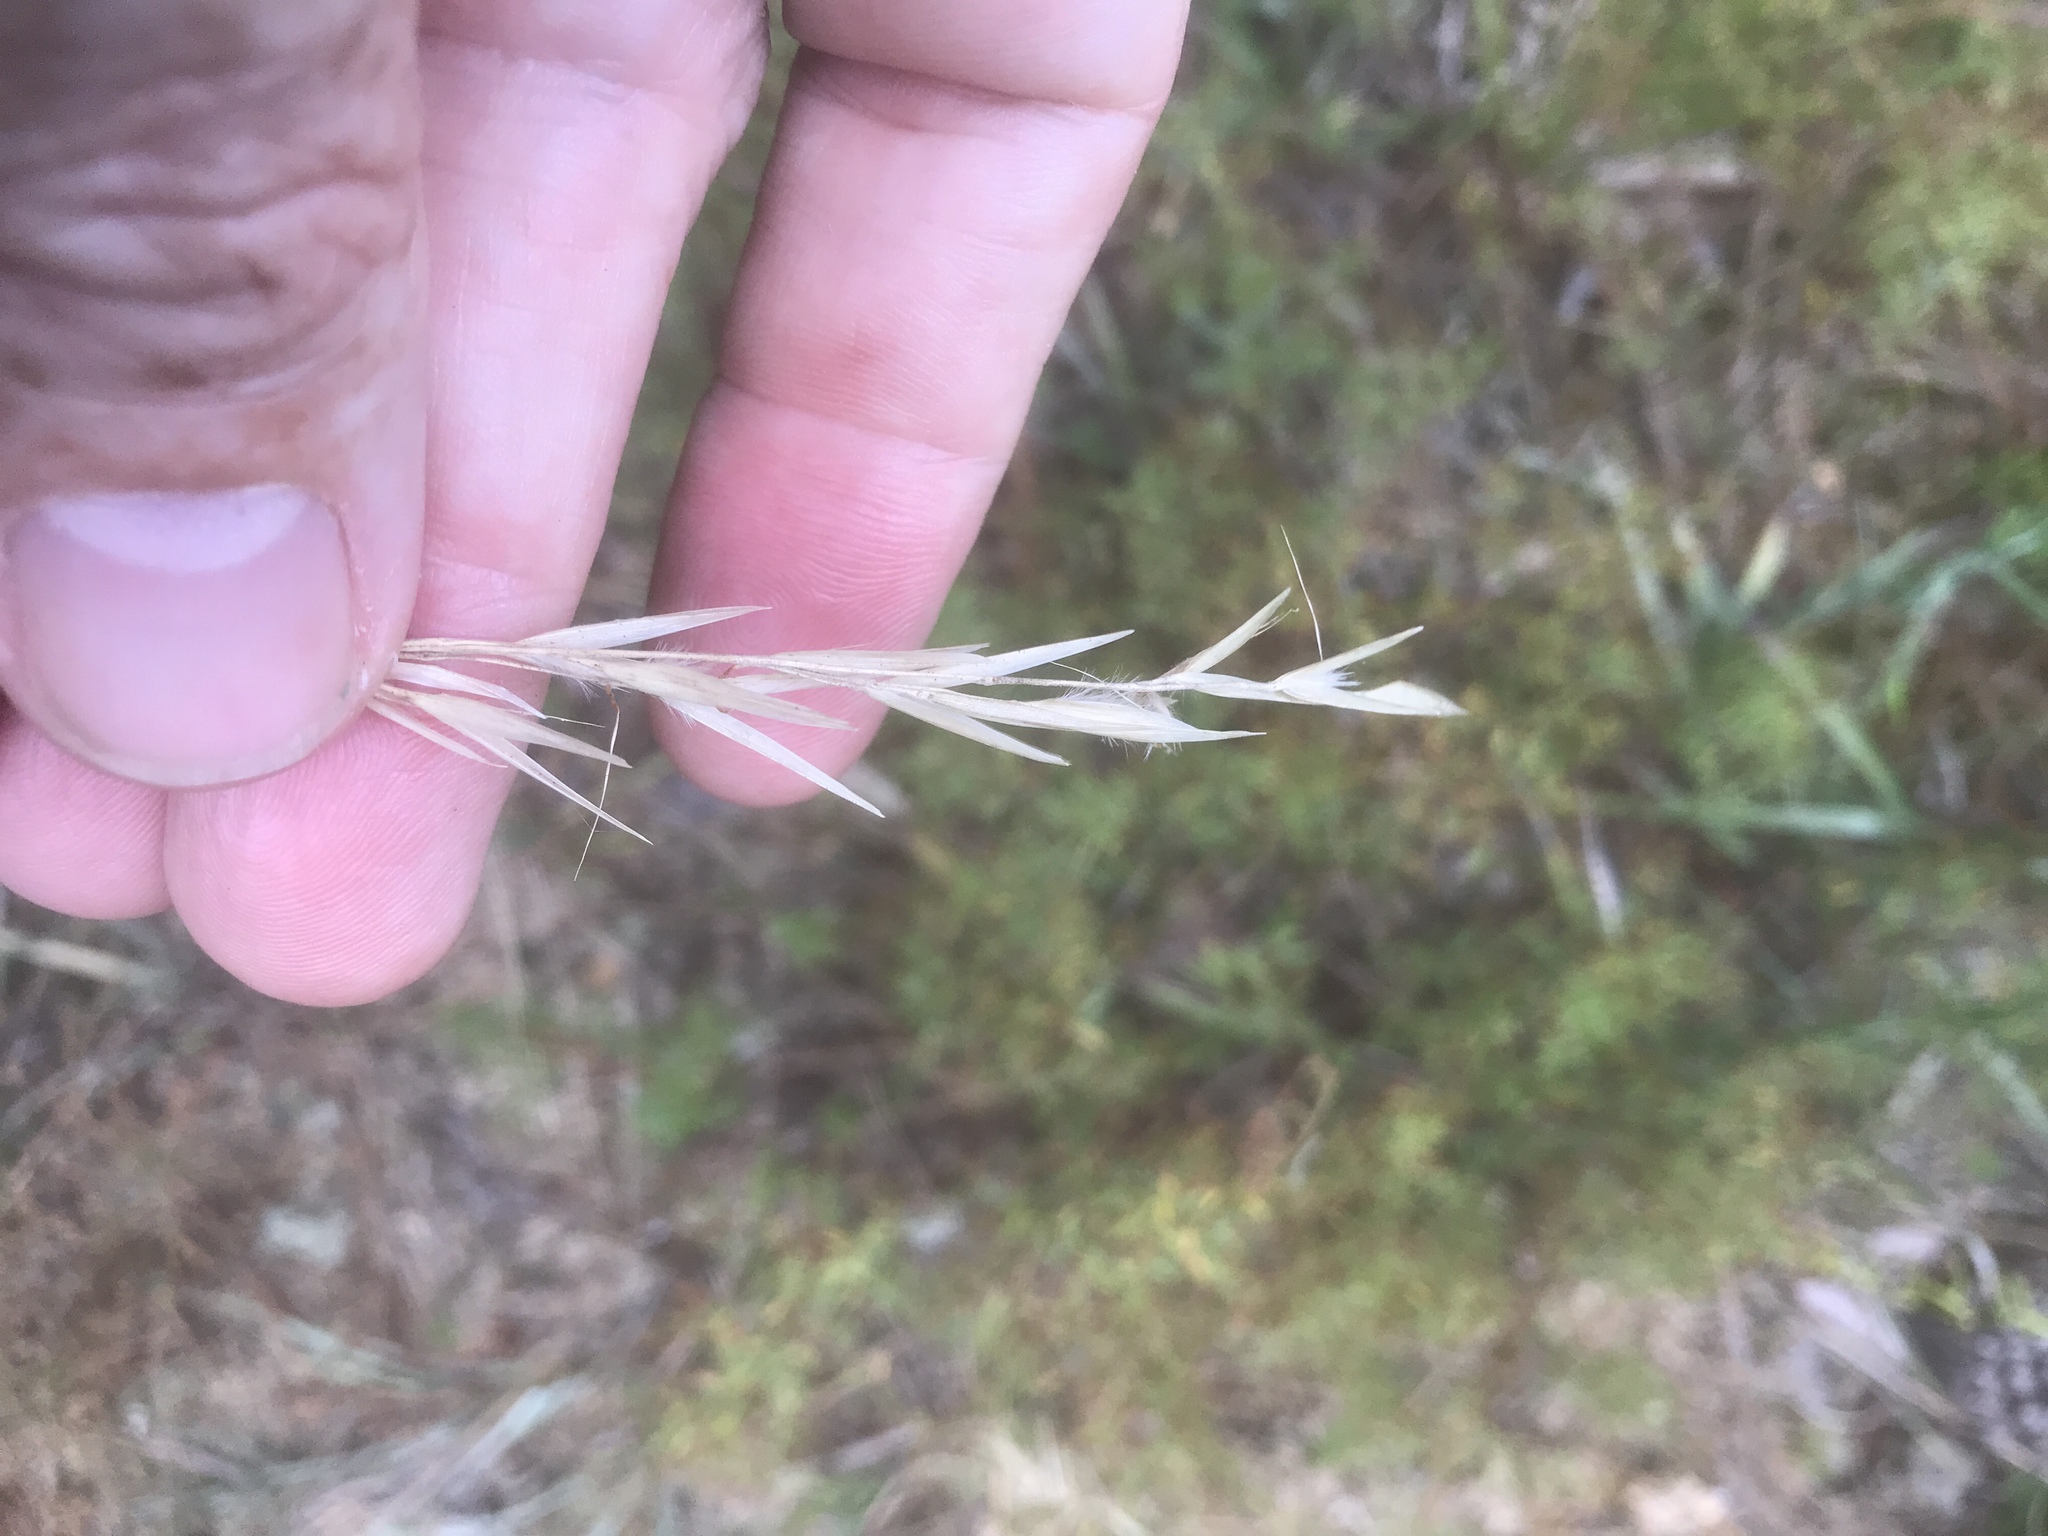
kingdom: Plantae
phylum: Tracheophyta
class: Liliopsida
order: Poales
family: Poaceae
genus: Danthonia
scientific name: Danthonia sericea
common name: Downy danthonia
